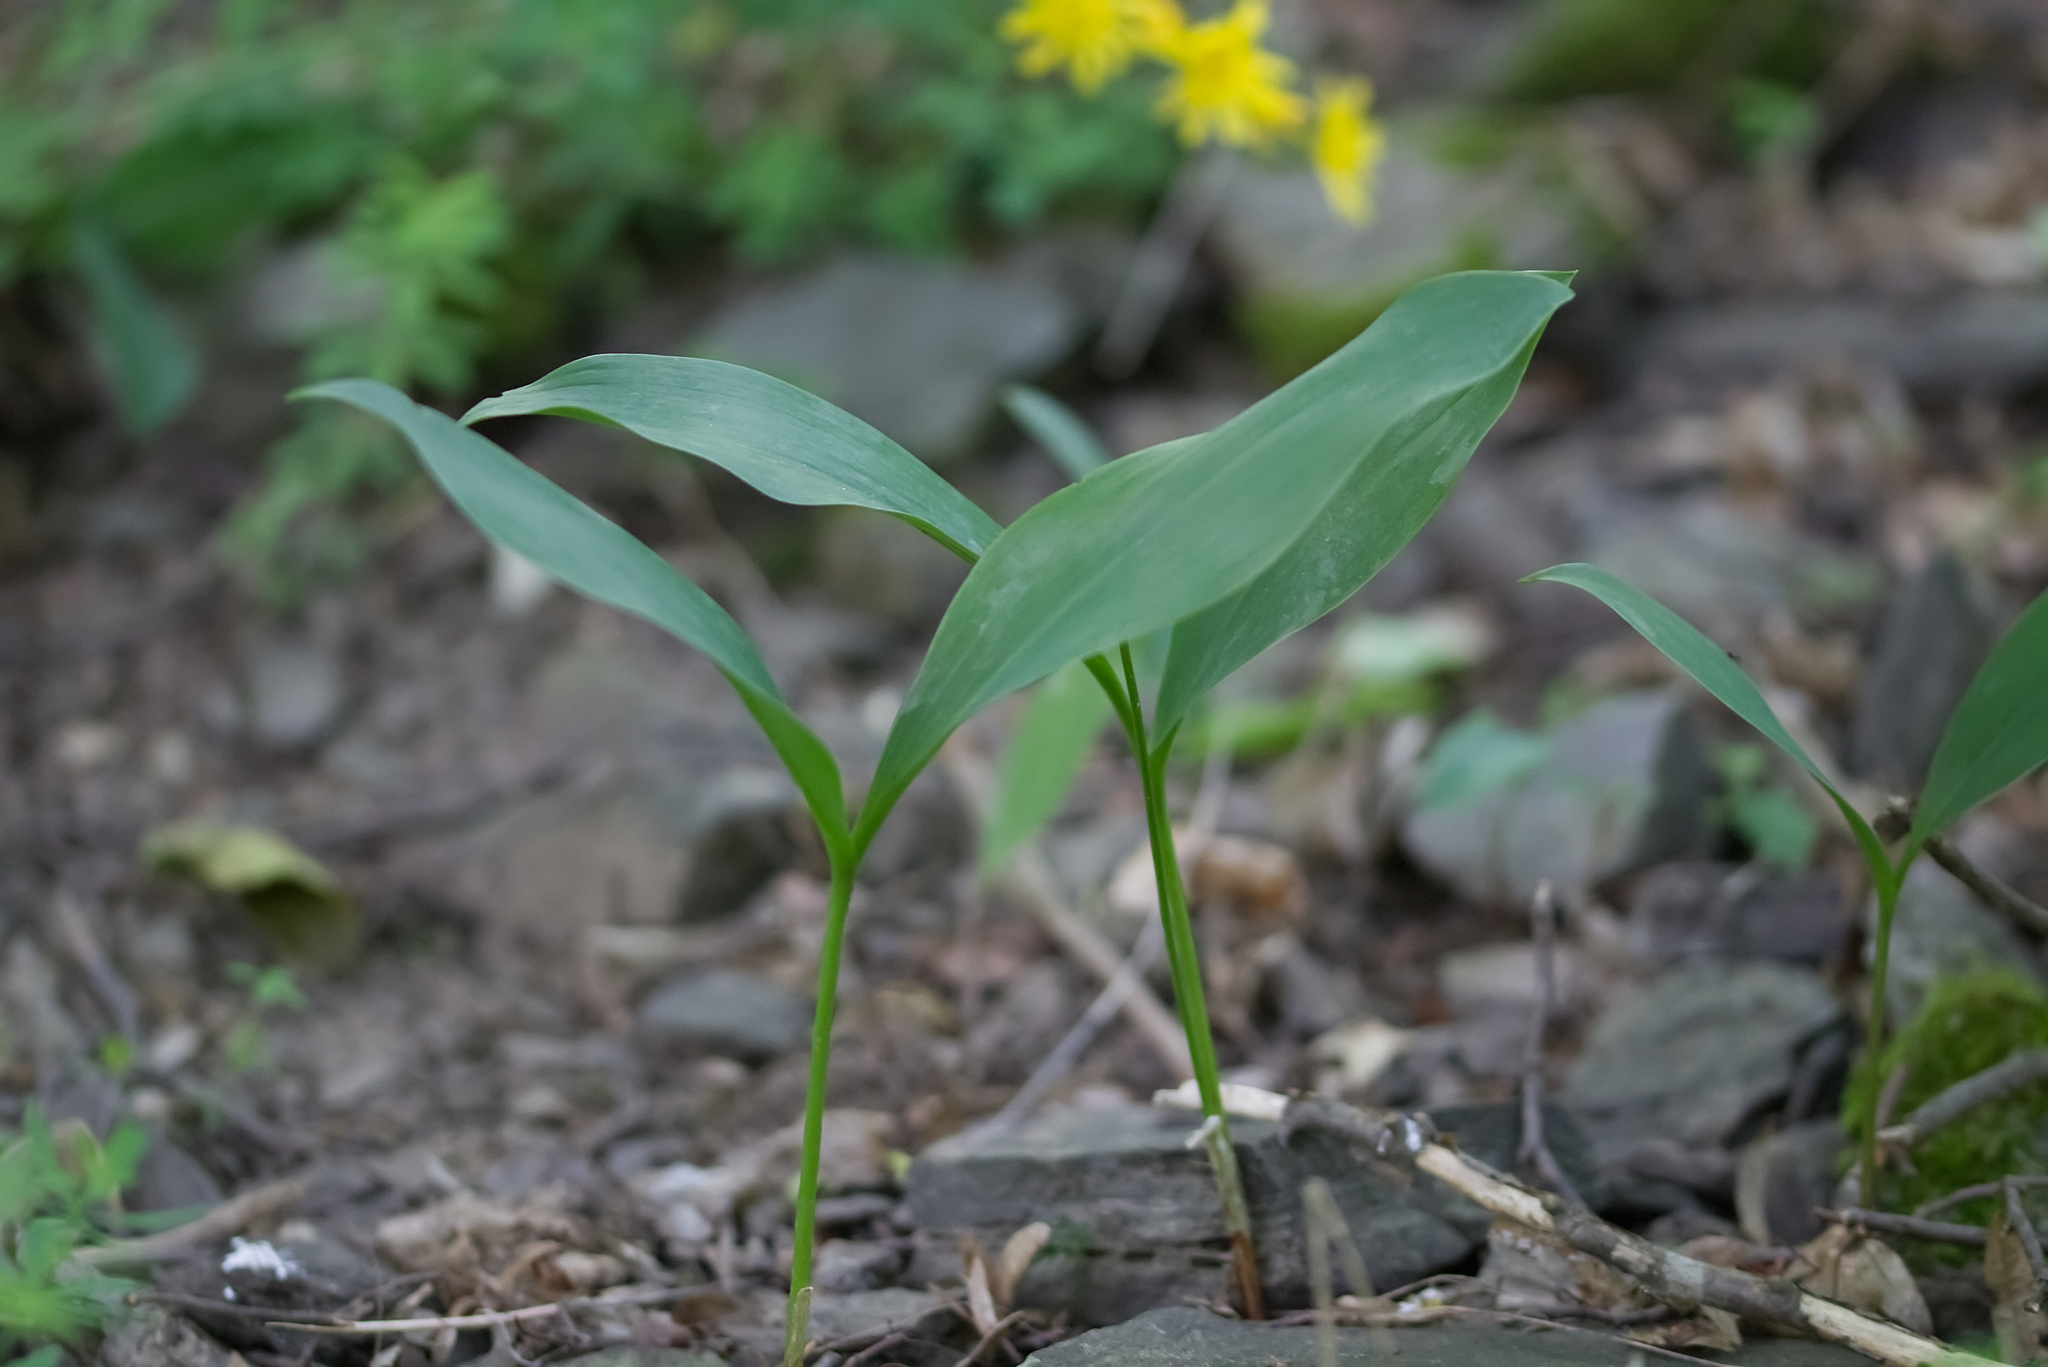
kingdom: Plantae
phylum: Tracheophyta
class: Liliopsida
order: Asparagales
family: Asparagaceae
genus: Convallaria
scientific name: Convallaria majalis
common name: Lily-of-the-valley
